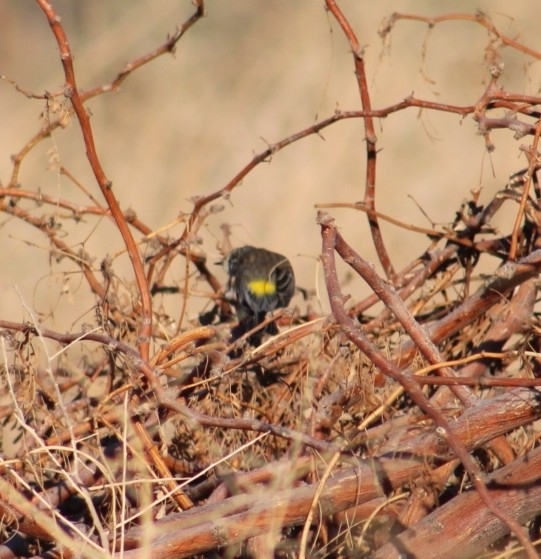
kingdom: Animalia
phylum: Chordata
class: Aves
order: Passeriformes
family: Parulidae
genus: Setophaga
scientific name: Setophaga coronata
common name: Myrtle warbler
